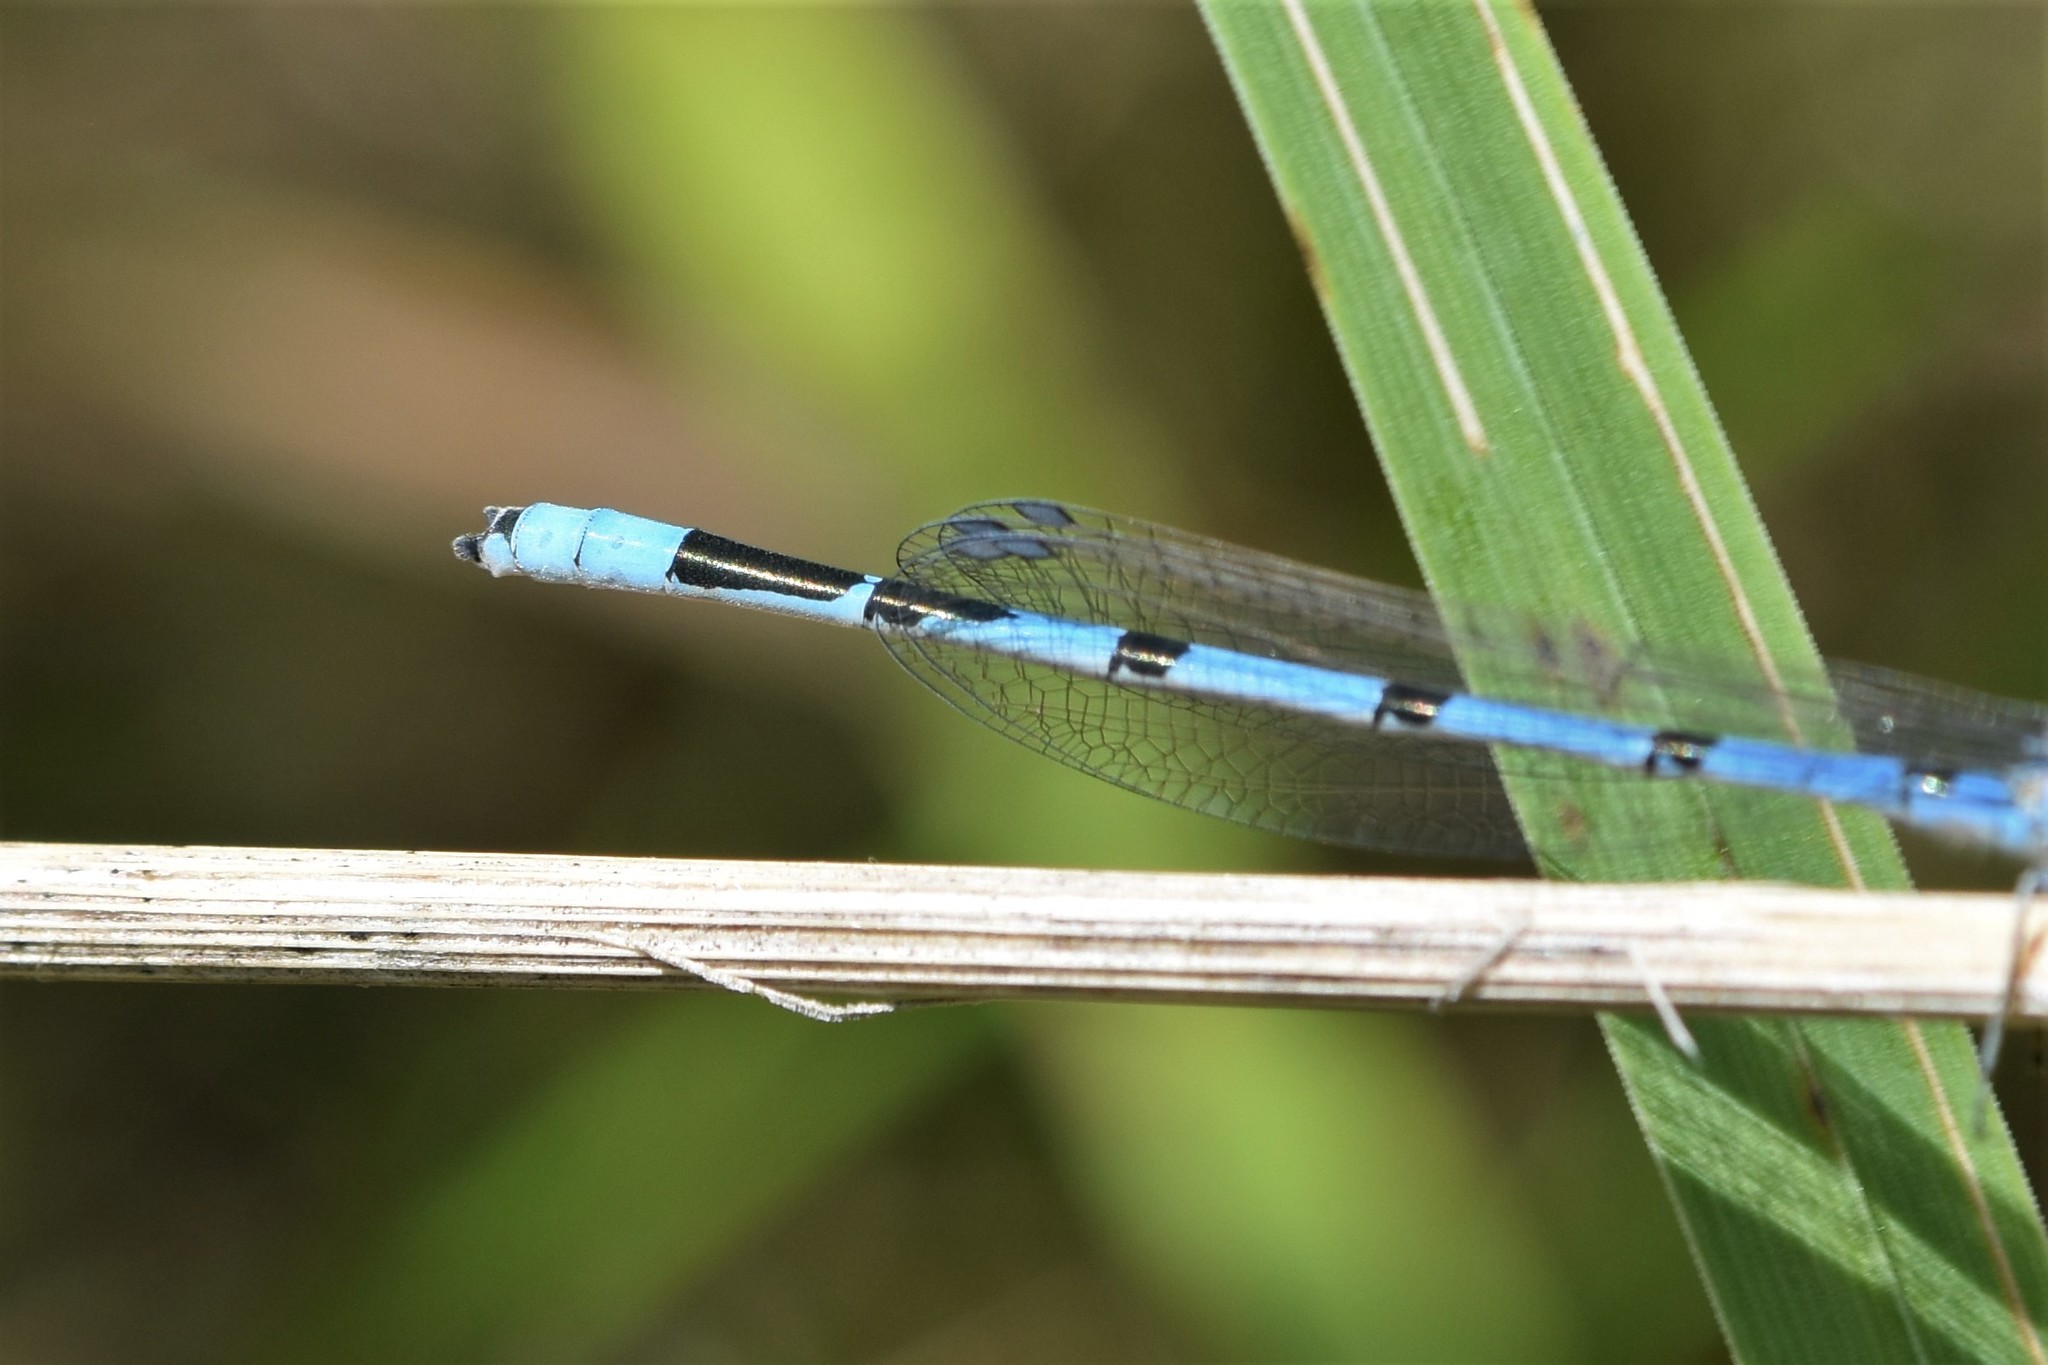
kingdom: Animalia
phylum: Arthropoda
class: Insecta
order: Odonata
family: Coenagrionidae
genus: Enallagma
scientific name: Enallagma civile
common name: Damselfly
